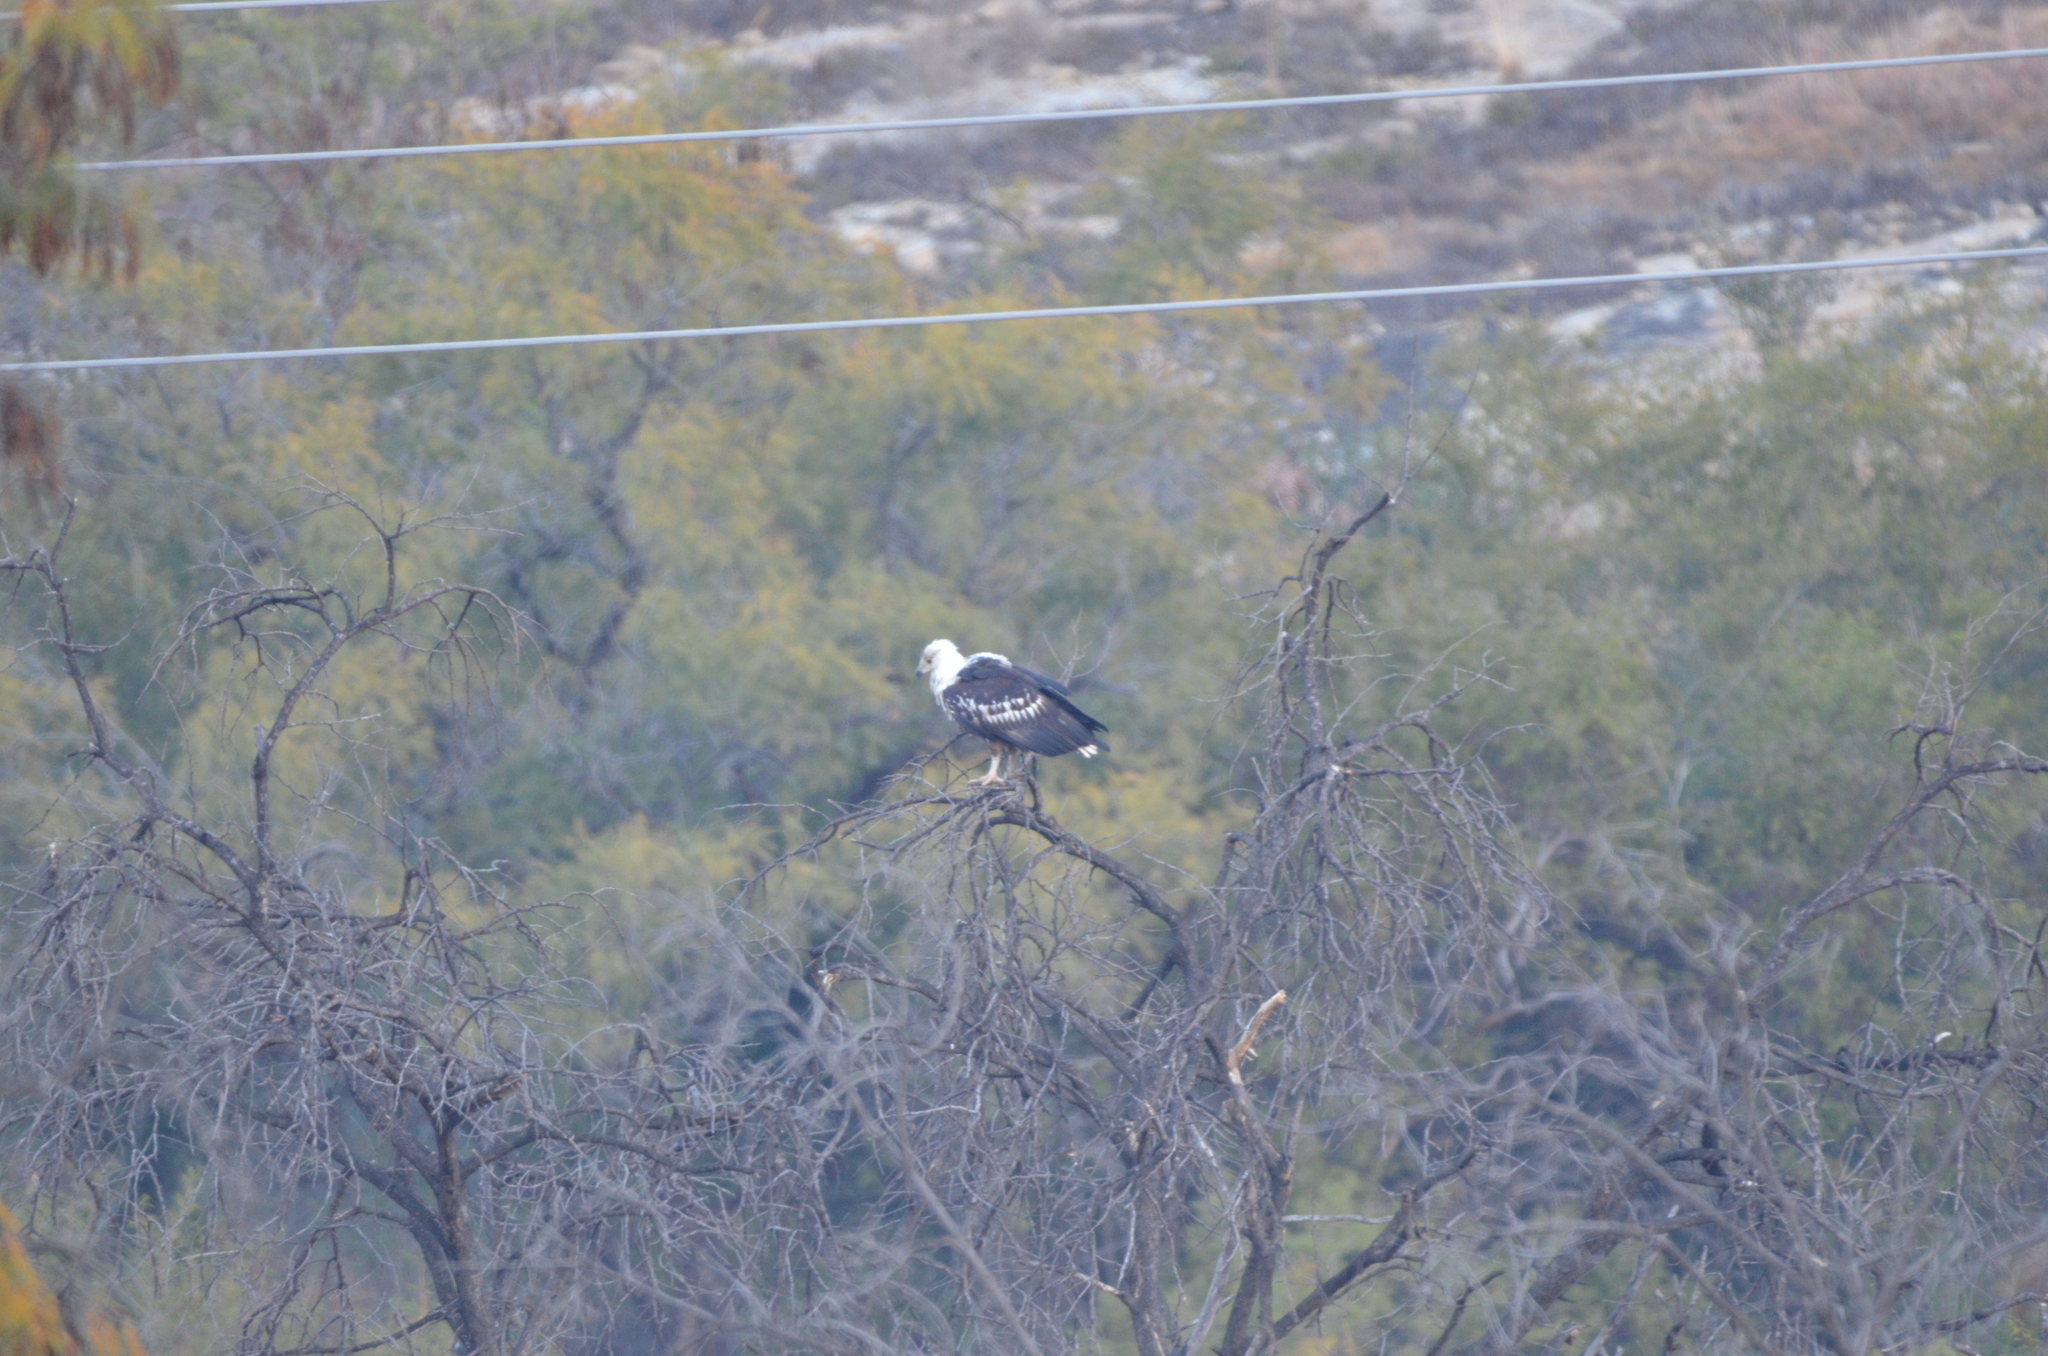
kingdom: Animalia
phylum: Chordata
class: Aves
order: Accipitriformes
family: Accipitridae
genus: Haliaeetus
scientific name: Haliaeetus vocifer
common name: African fish eagle
